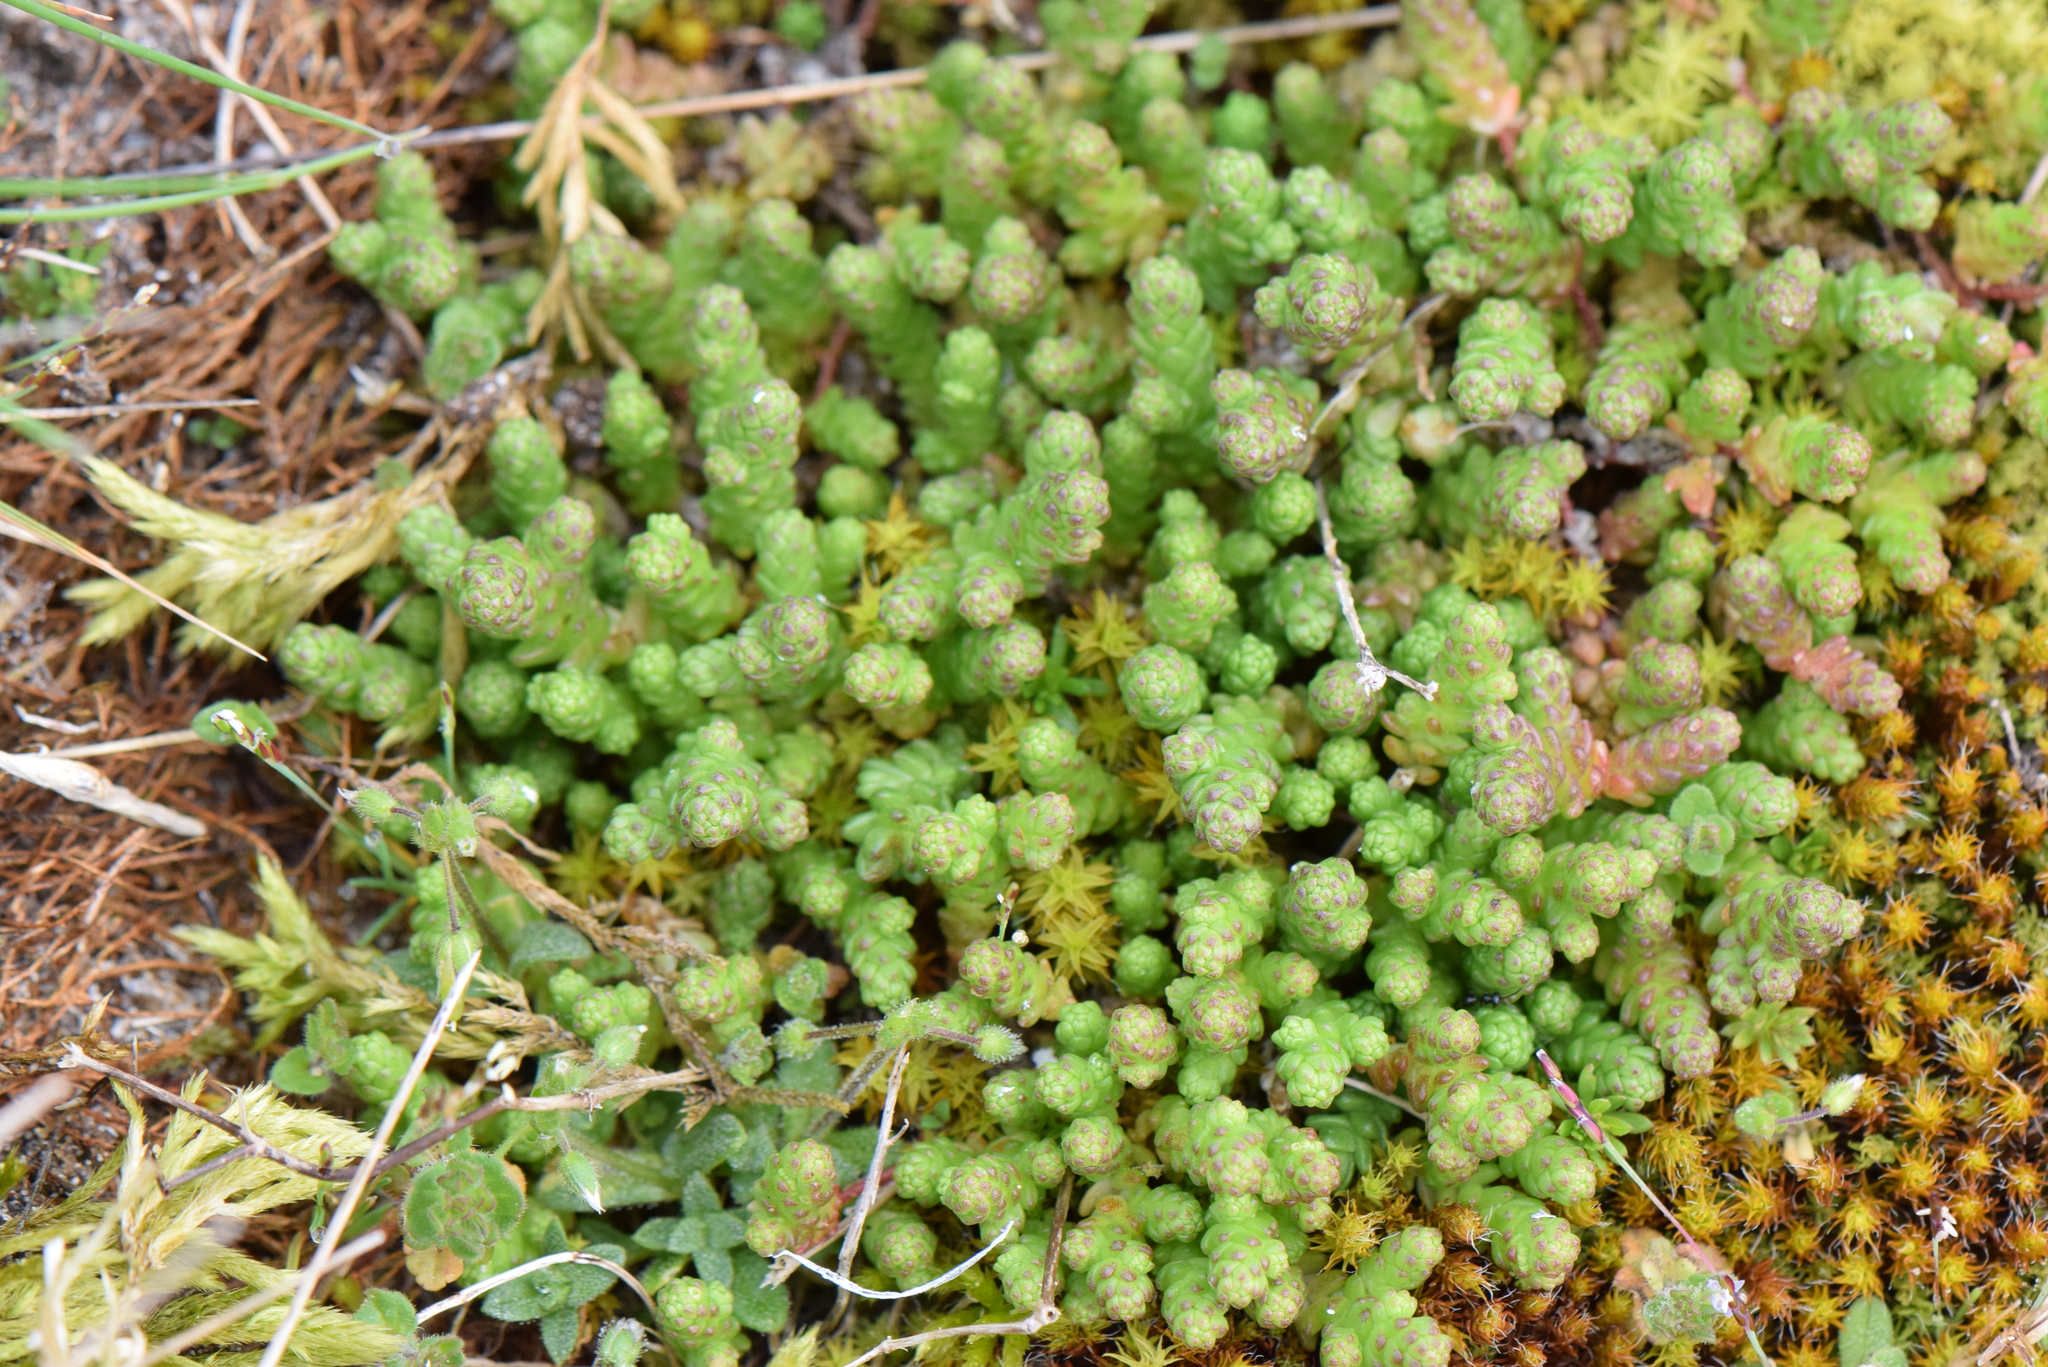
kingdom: Plantae
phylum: Tracheophyta
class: Magnoliopsida
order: Saxifragales
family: Crassulaceae
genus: Sedum
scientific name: Sedum acre
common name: Biting stonecrop
